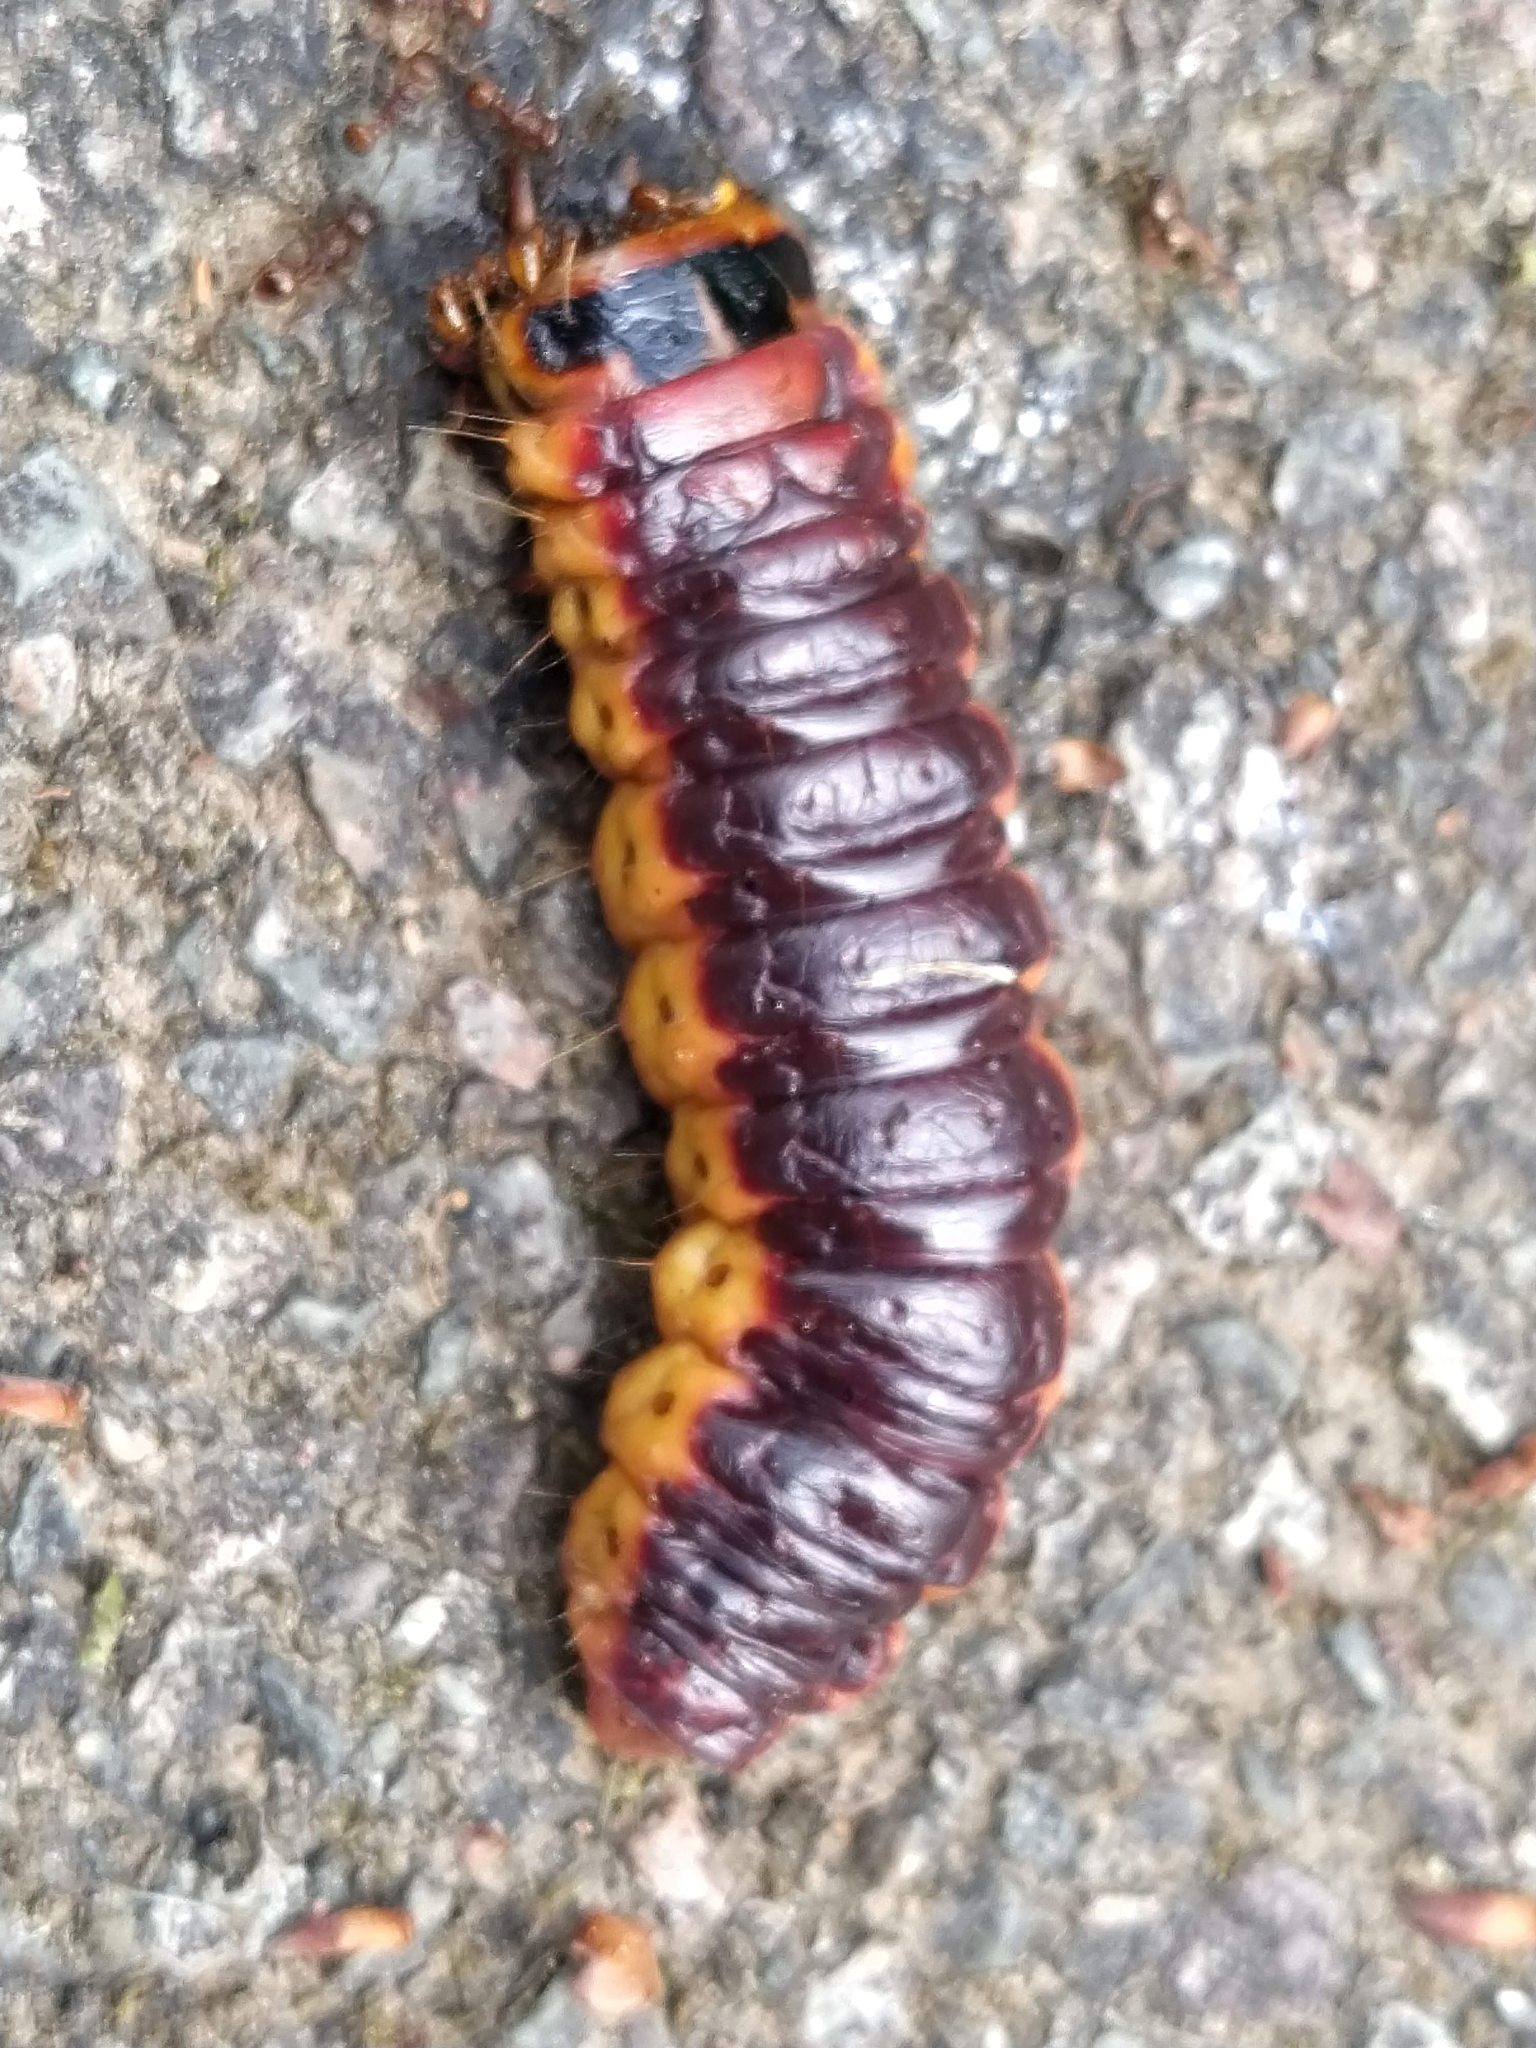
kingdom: Animalia
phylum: Arthropoda
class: Insecta
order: Lepidoptera
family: Cossidae
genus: Cossus
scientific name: Cossus cossus
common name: Goat moth
